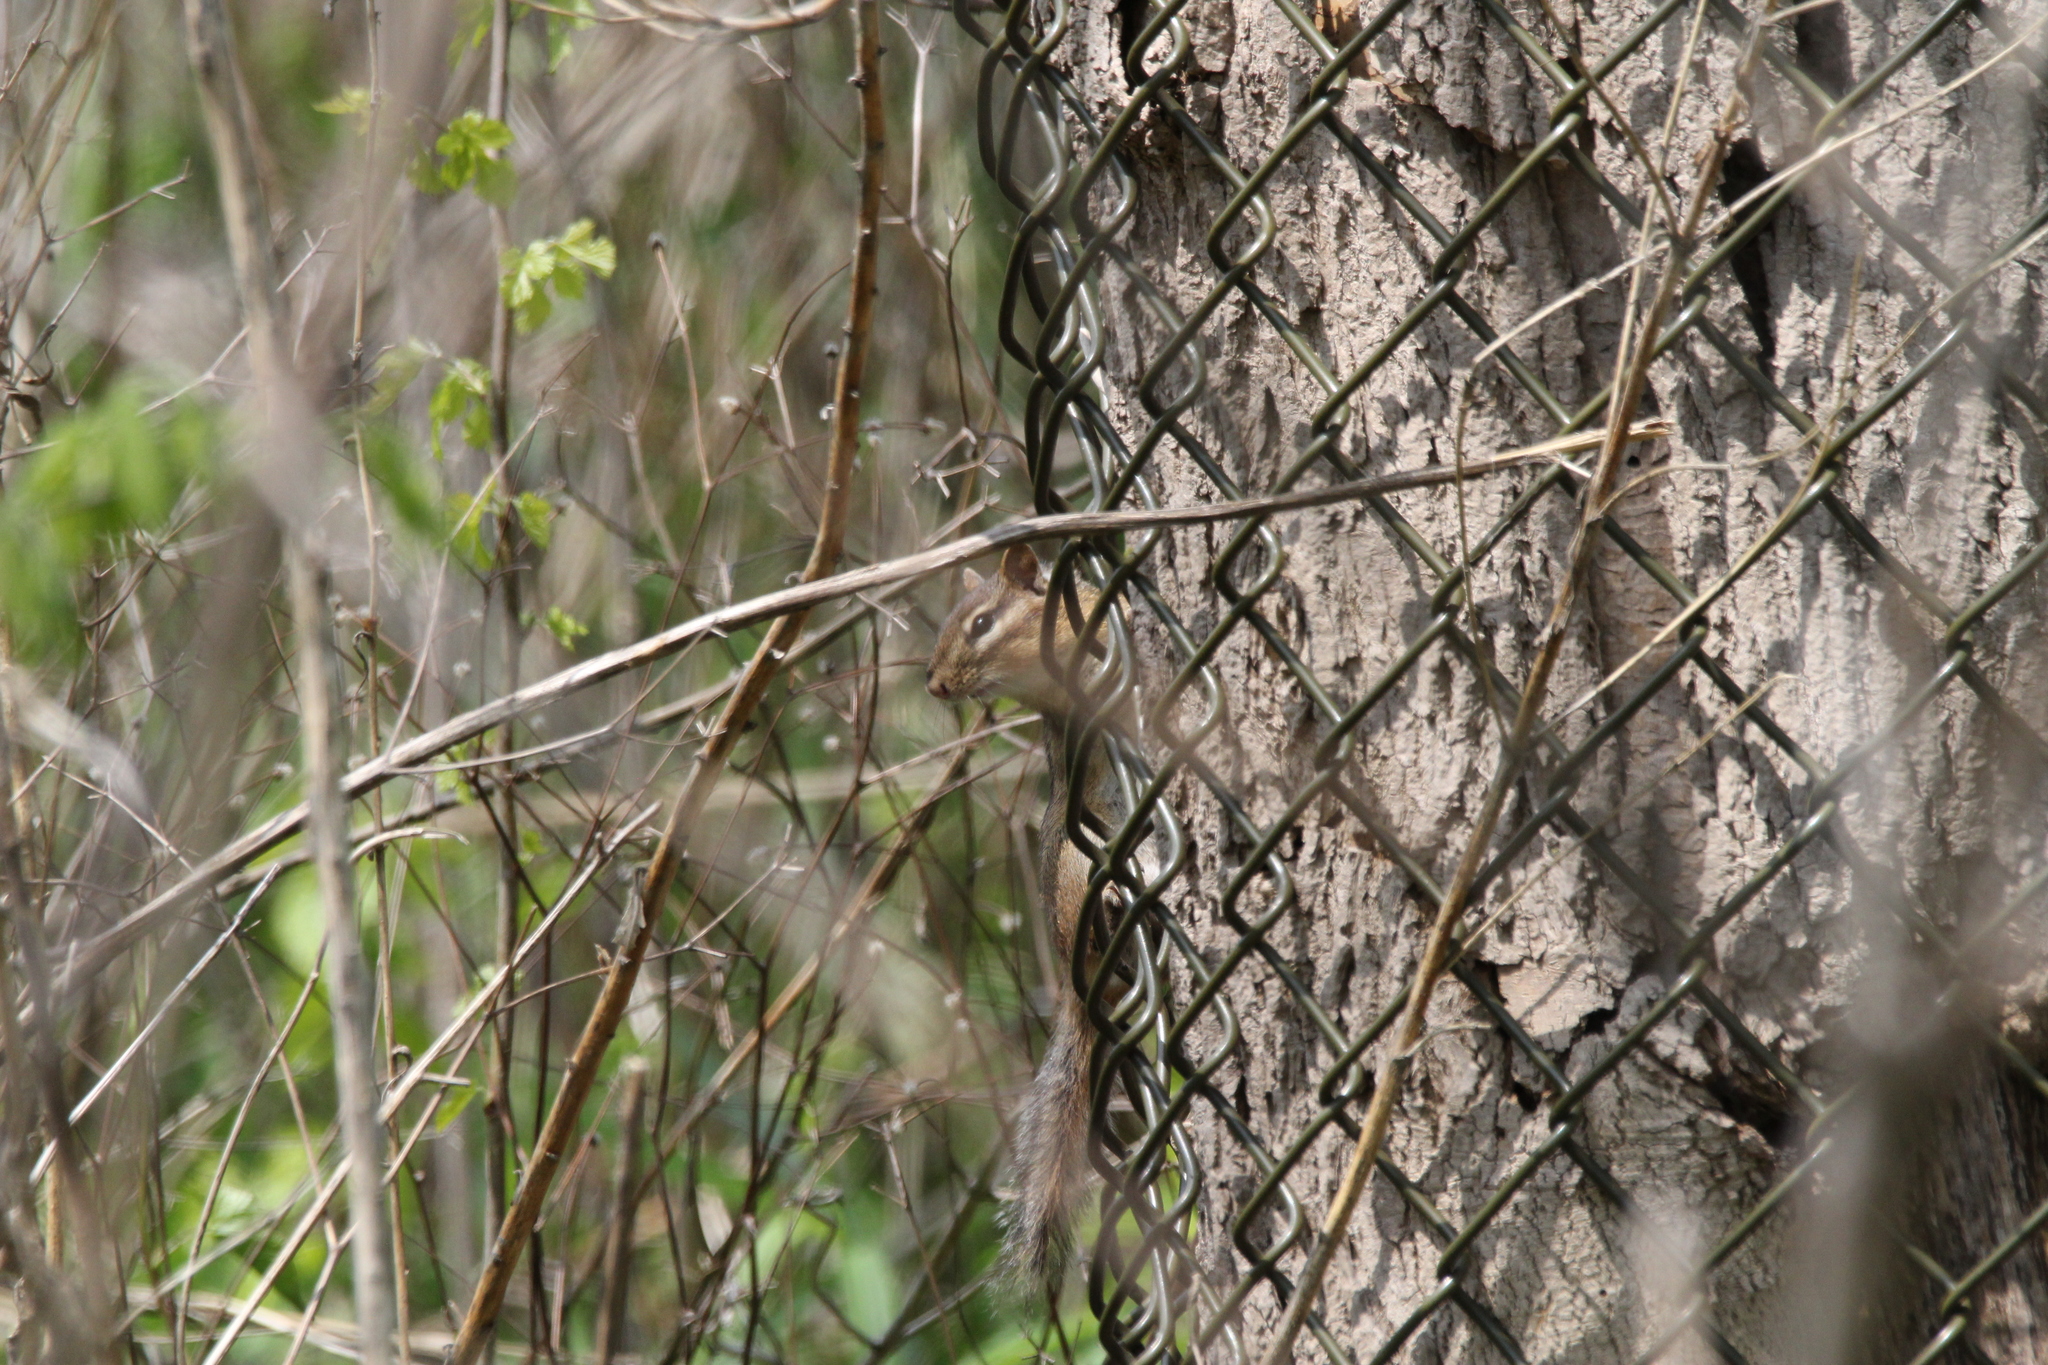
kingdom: Animalia
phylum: Chordata
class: Mammalia
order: Rodentia
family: Sciuridae
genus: Tamias
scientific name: Tamias striatus
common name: Eastern chipmunk
